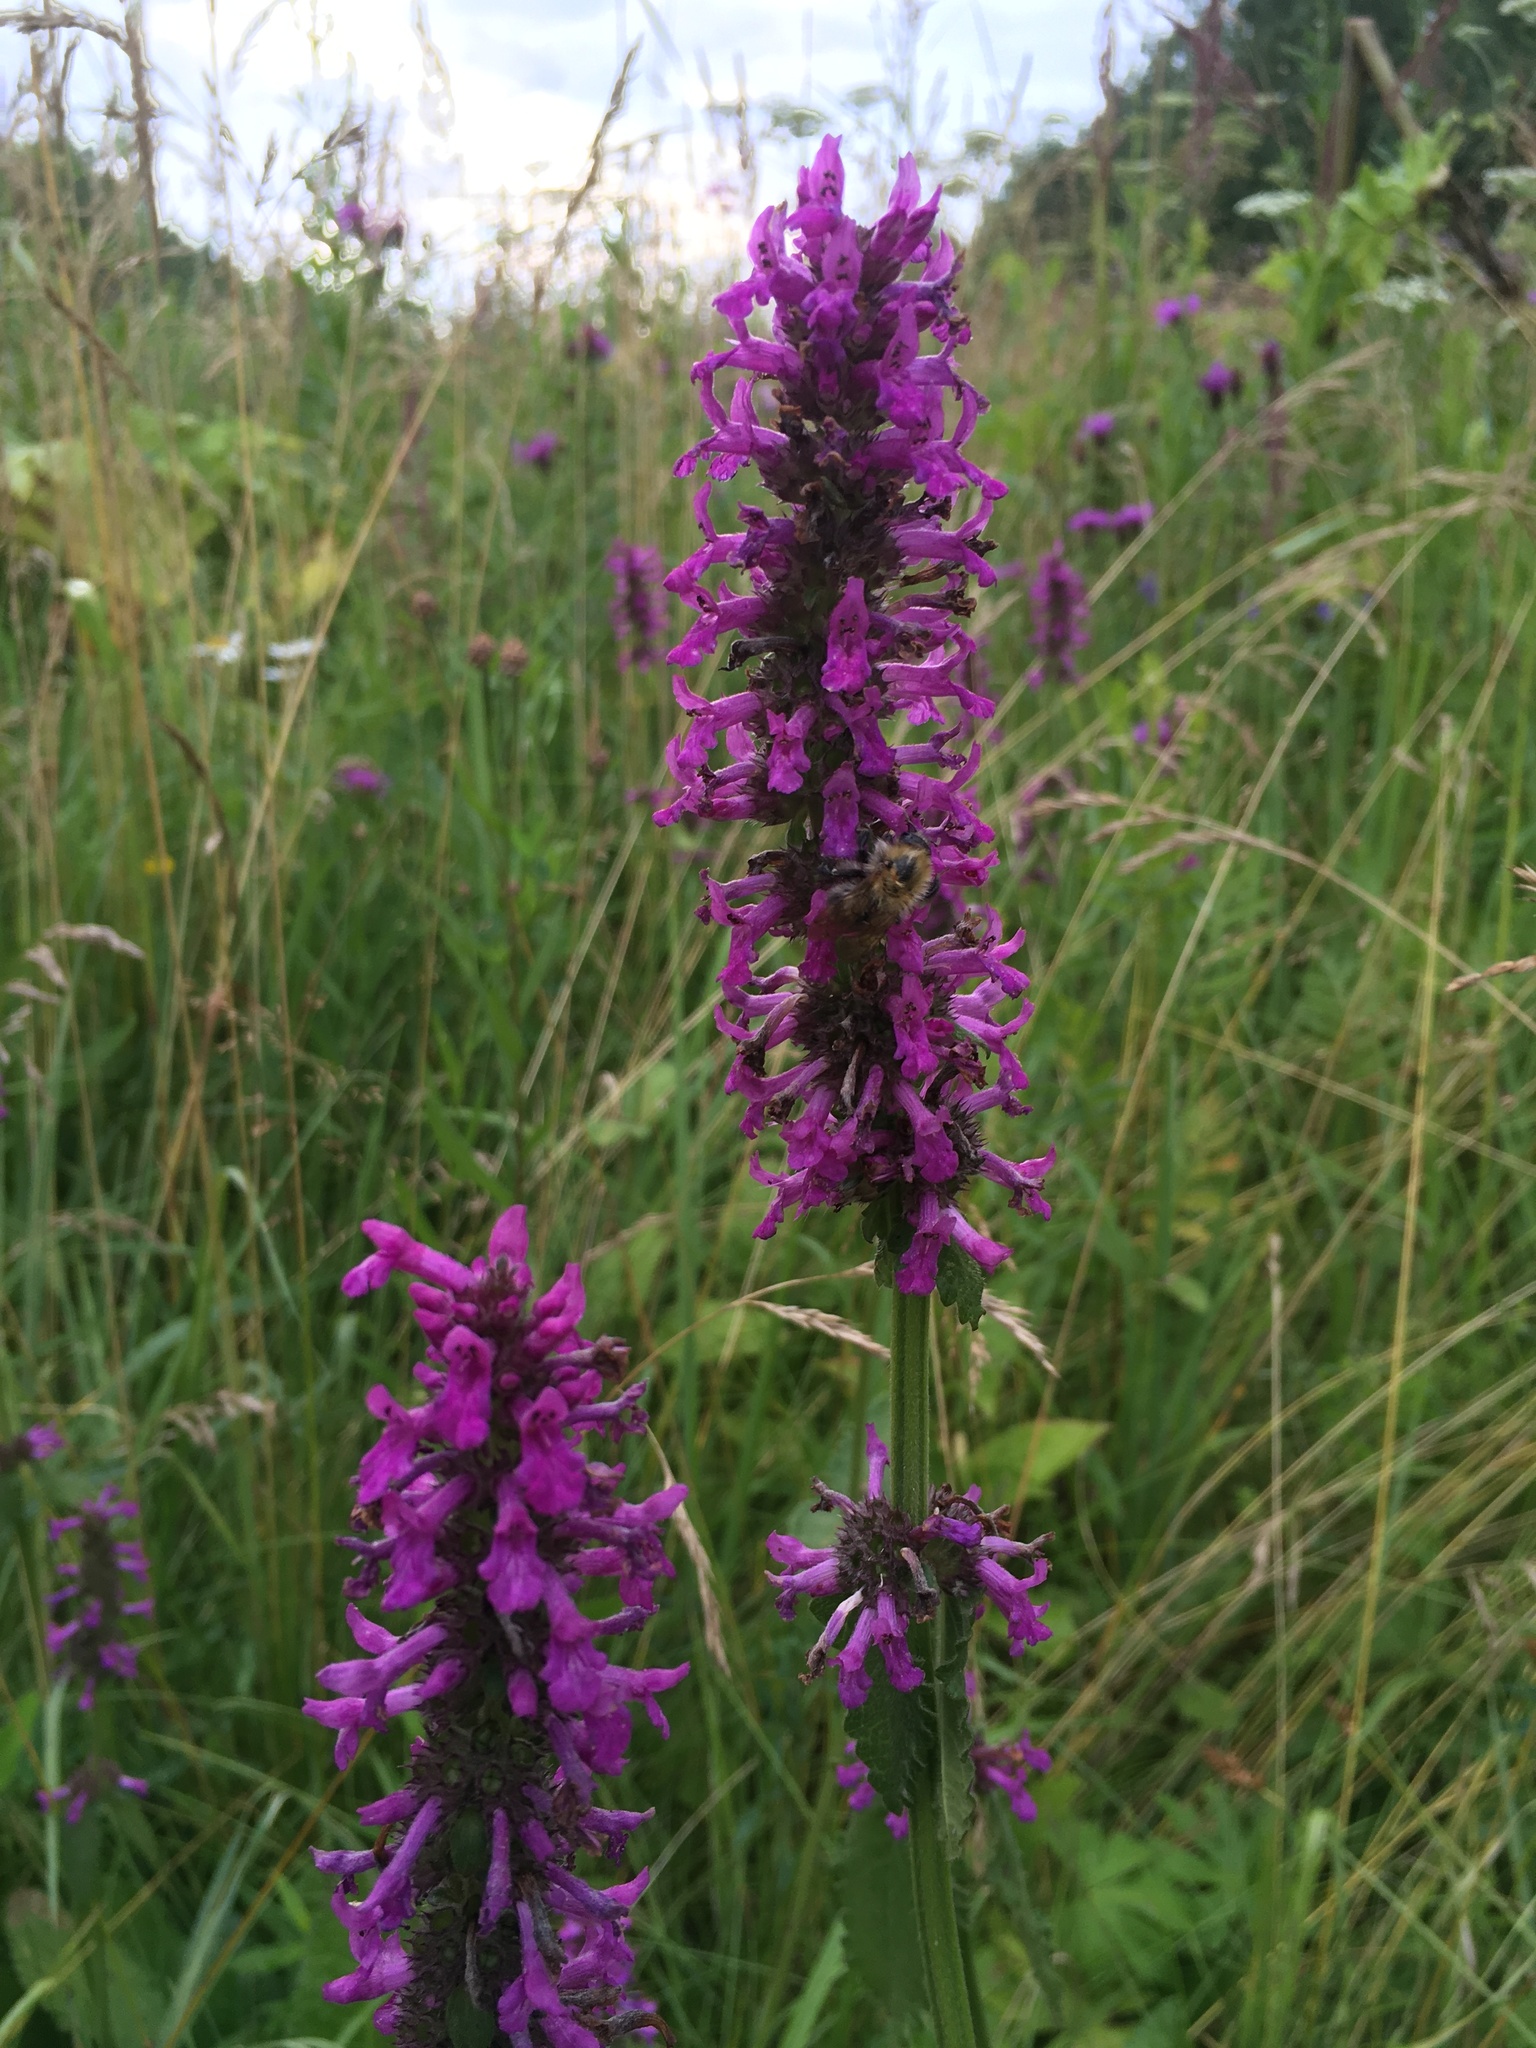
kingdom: Plantae
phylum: Tracheophyta
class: Magnoliopsida
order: Lamiales
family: Lamiaceae
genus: Betonica
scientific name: Betonica officinalis
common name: Bishop's-wort
